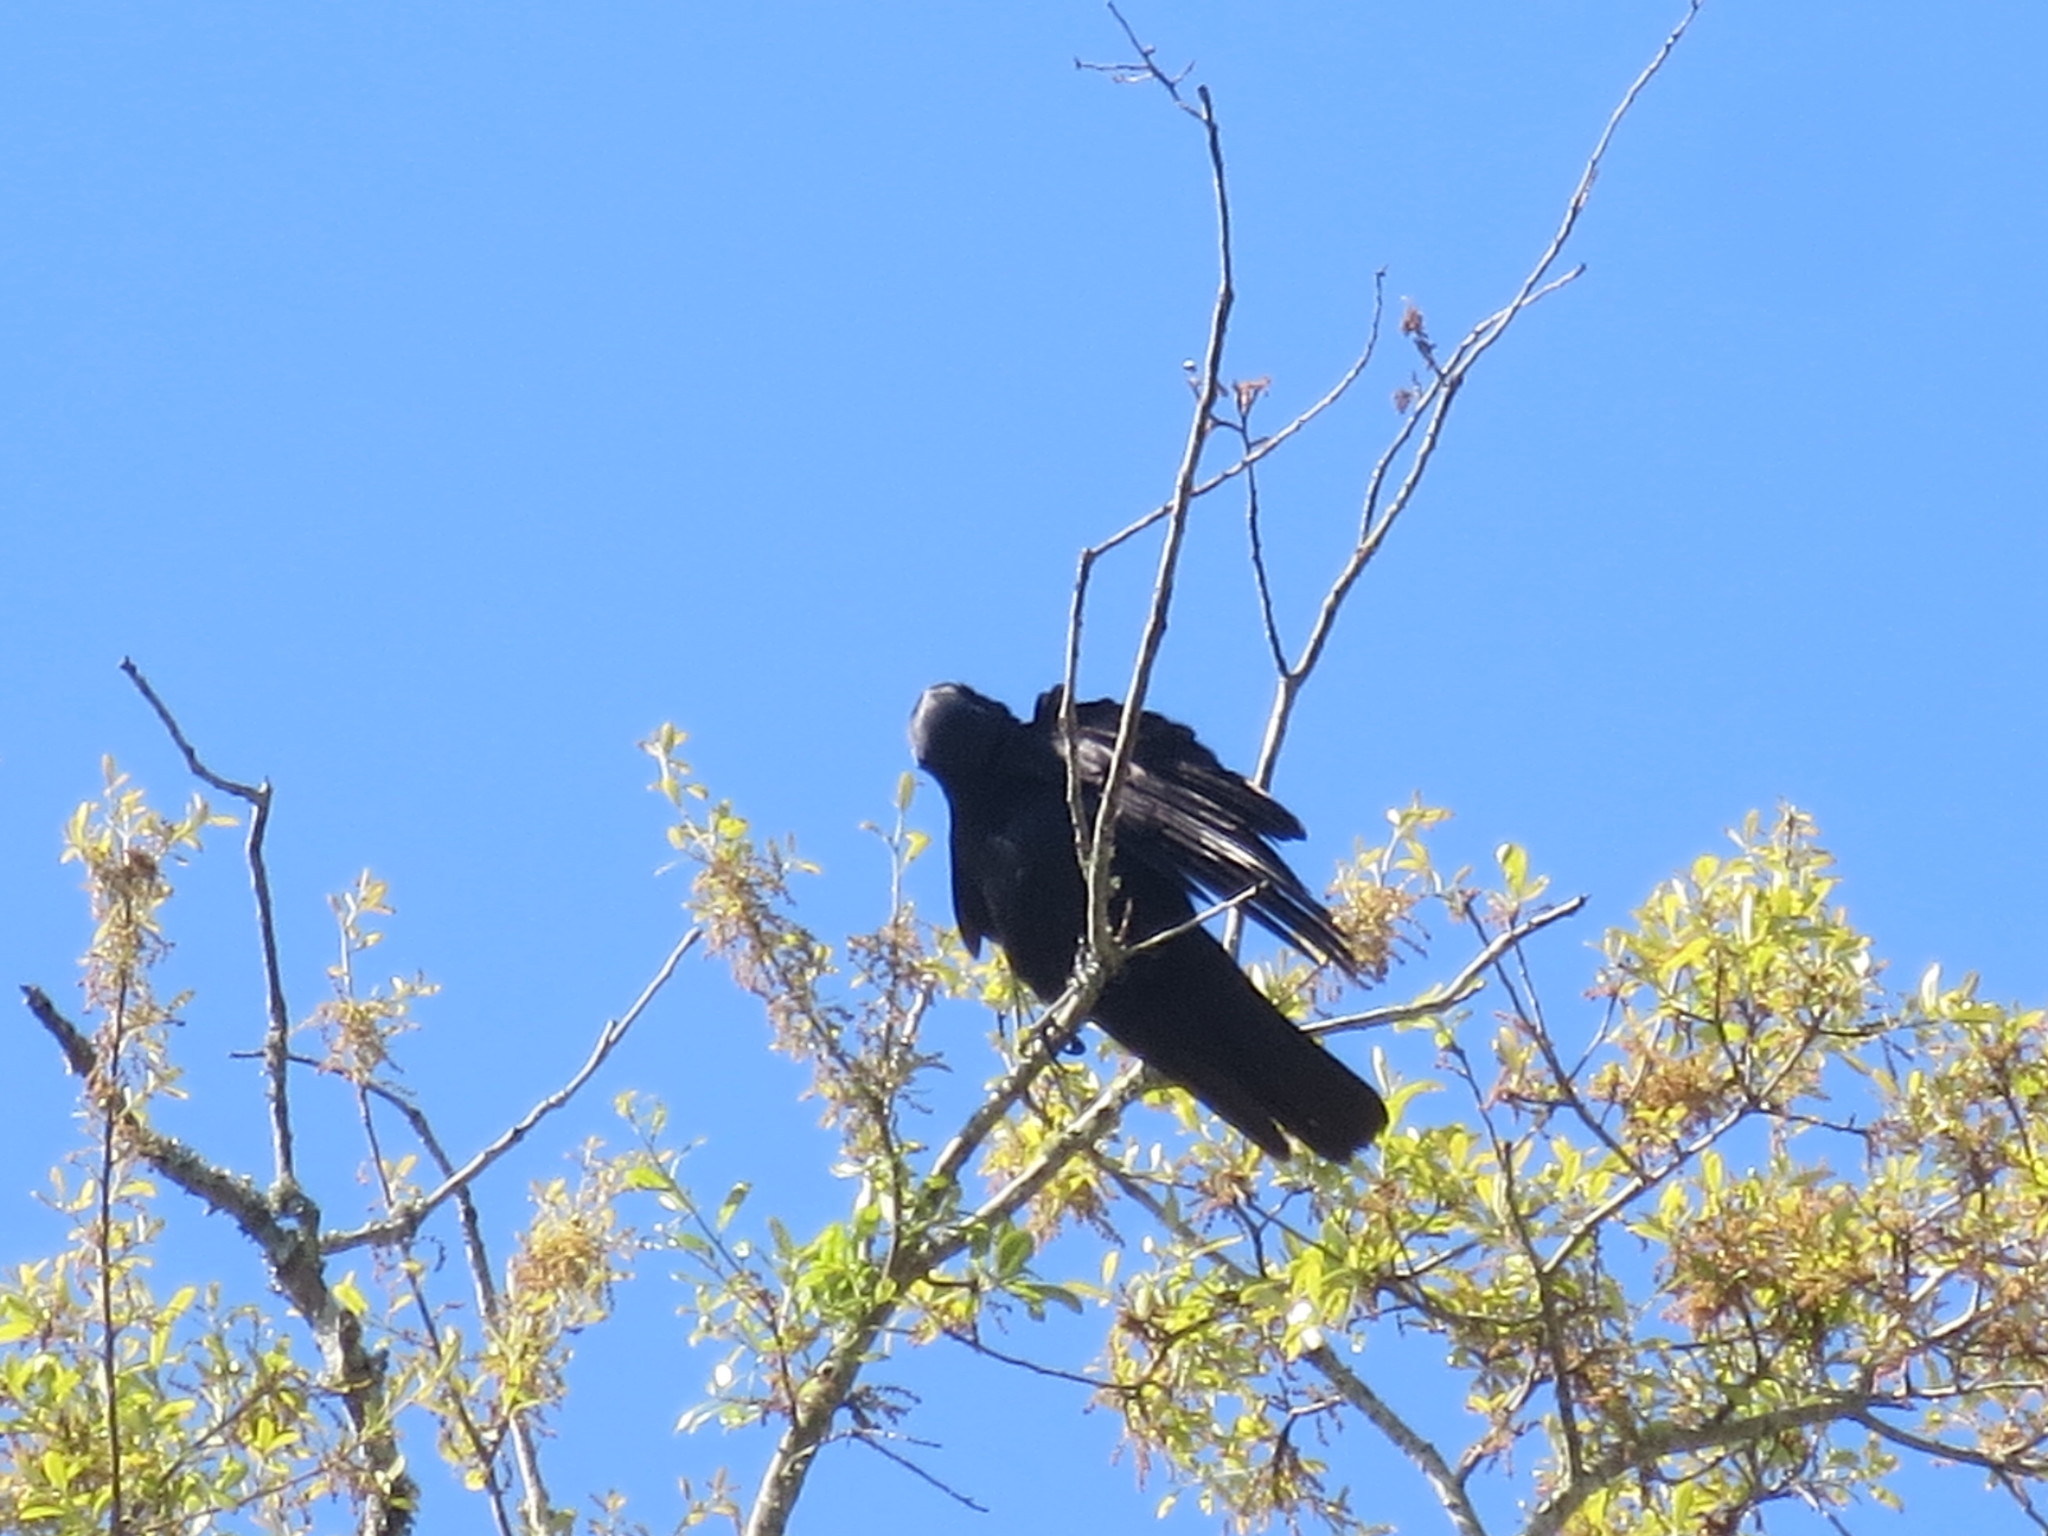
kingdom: Animalia
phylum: Chordata
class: Aves
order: Passeriformes
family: Corvidae
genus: Corvus
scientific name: Corvus ossifragus
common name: Fish crow
